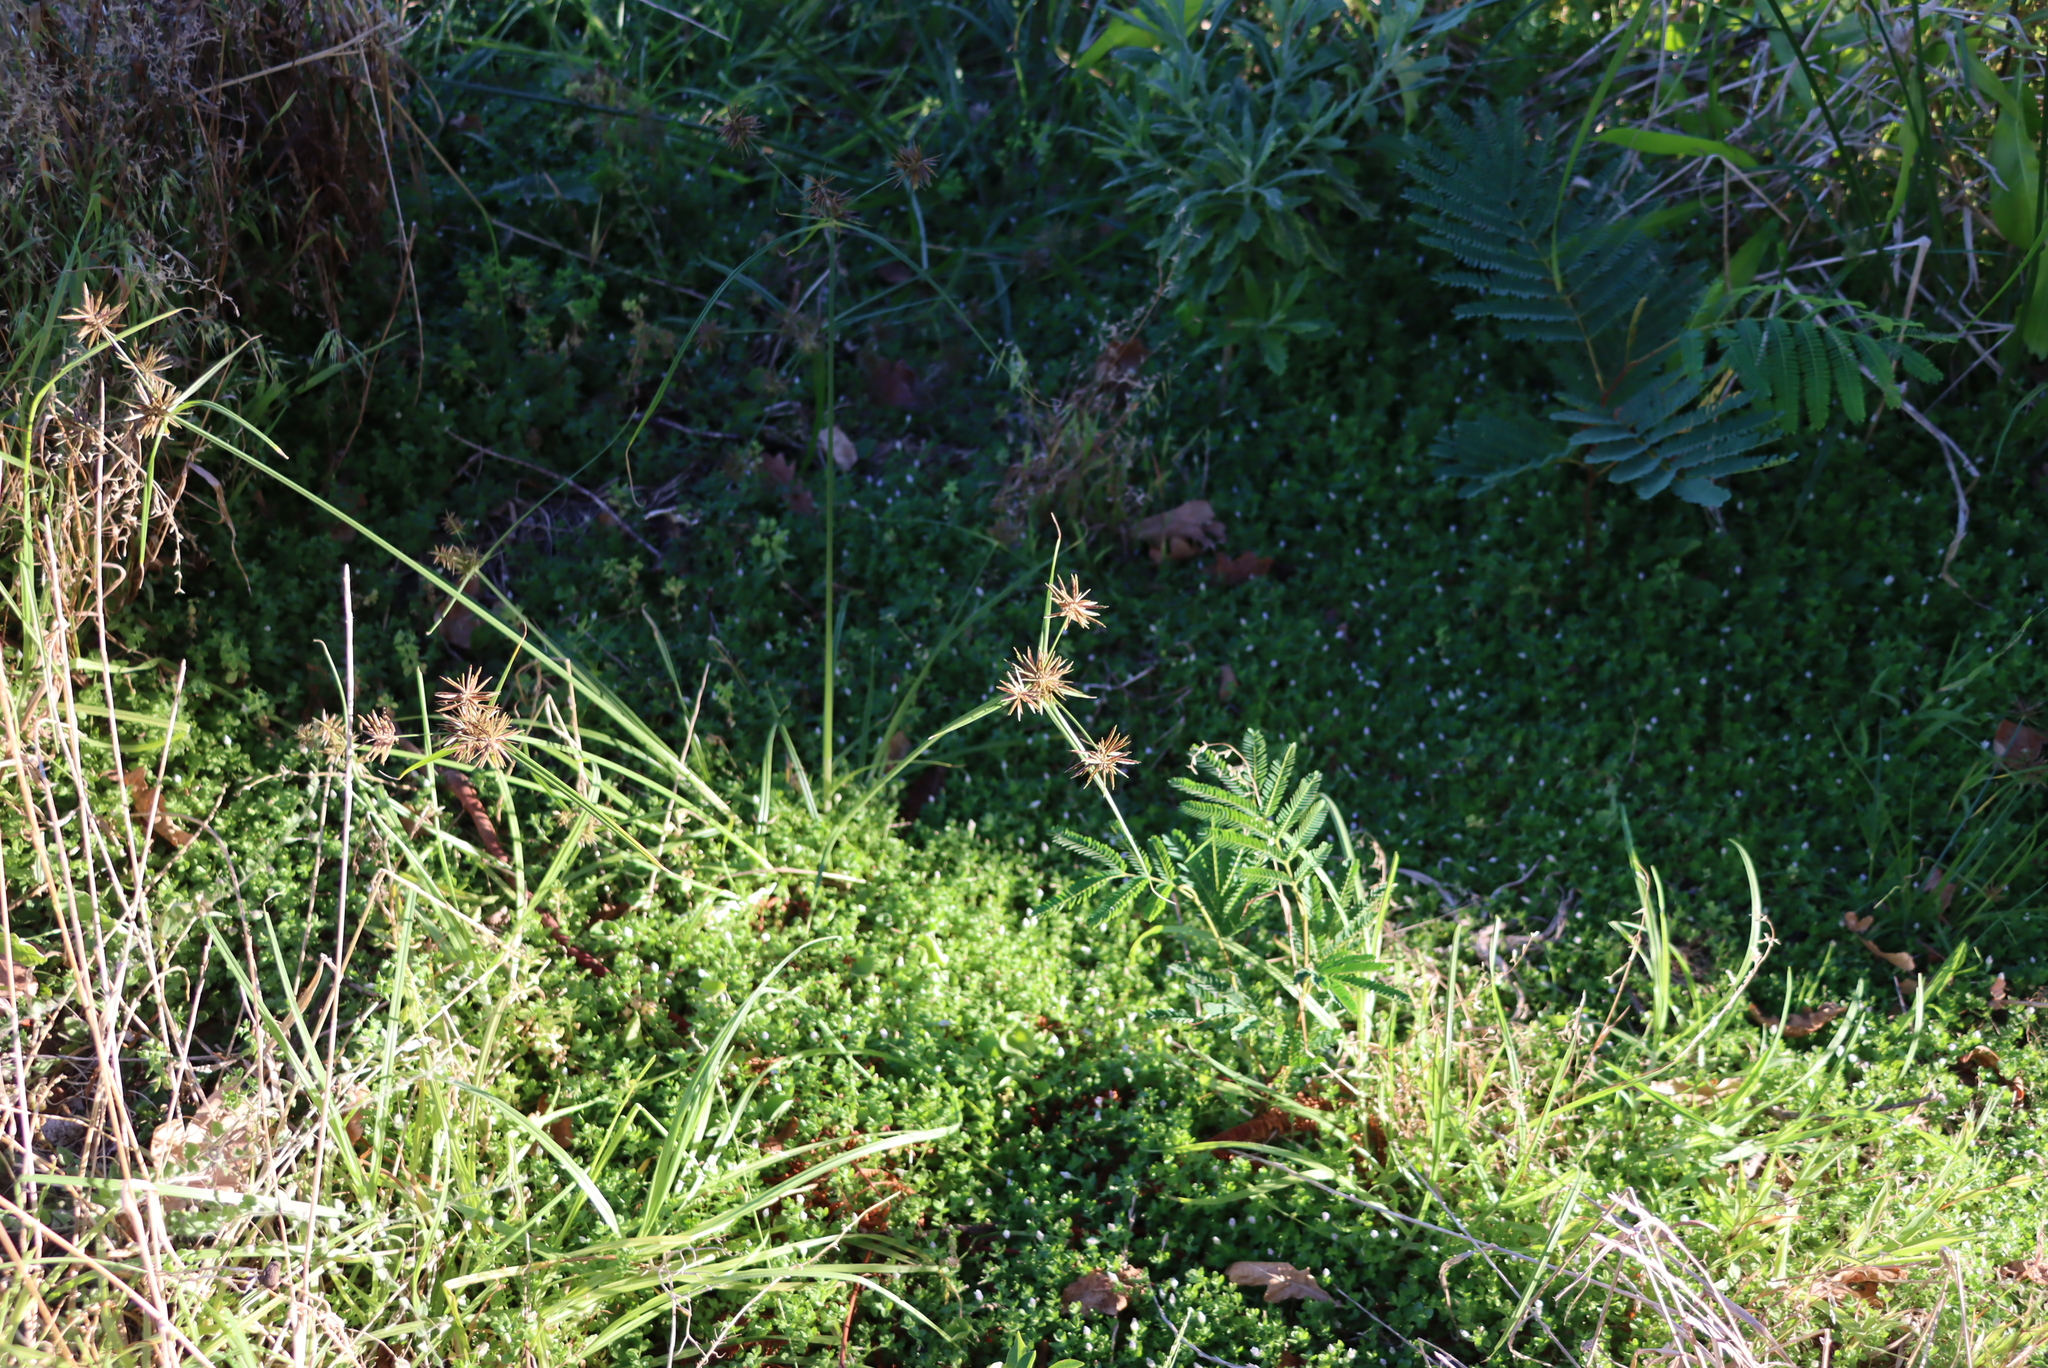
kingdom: Plantae
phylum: Tracheophyta
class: Liliopsida
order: Poales
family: Cyperaceae
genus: Cyperus
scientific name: Cyperus congestus
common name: Dense flat sedge
